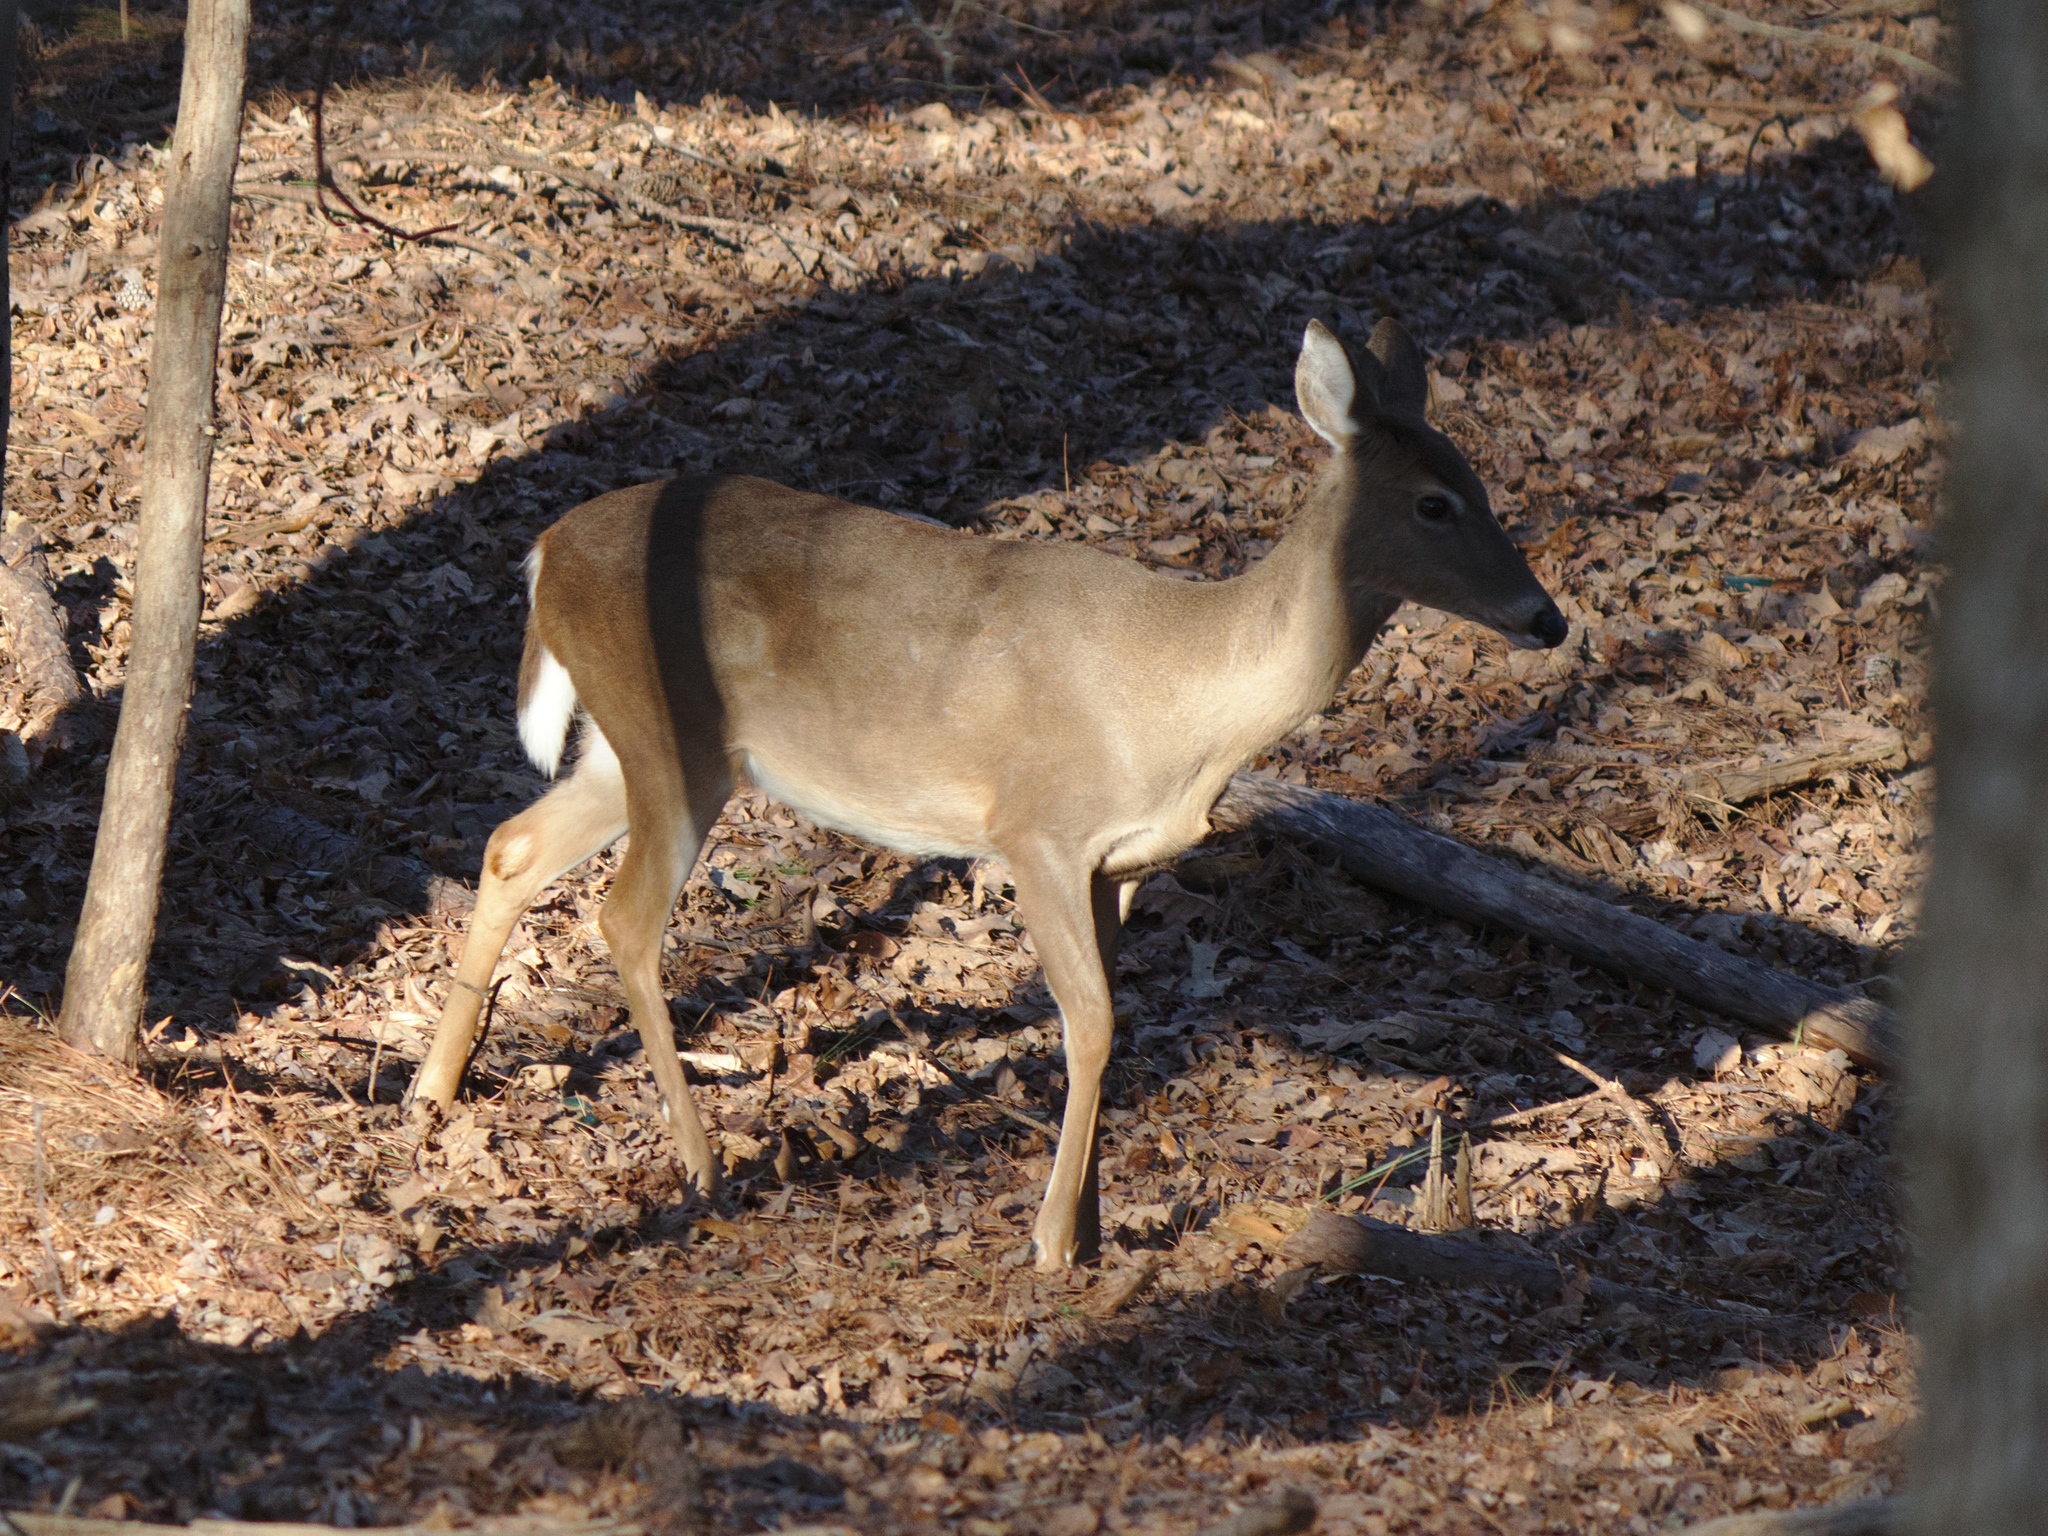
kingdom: Animalia
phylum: Chordata
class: Mammalia
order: Artiodactyla
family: Cervidae
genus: Odocoileus
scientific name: Odocoileus virginianus
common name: White-tailed deer
